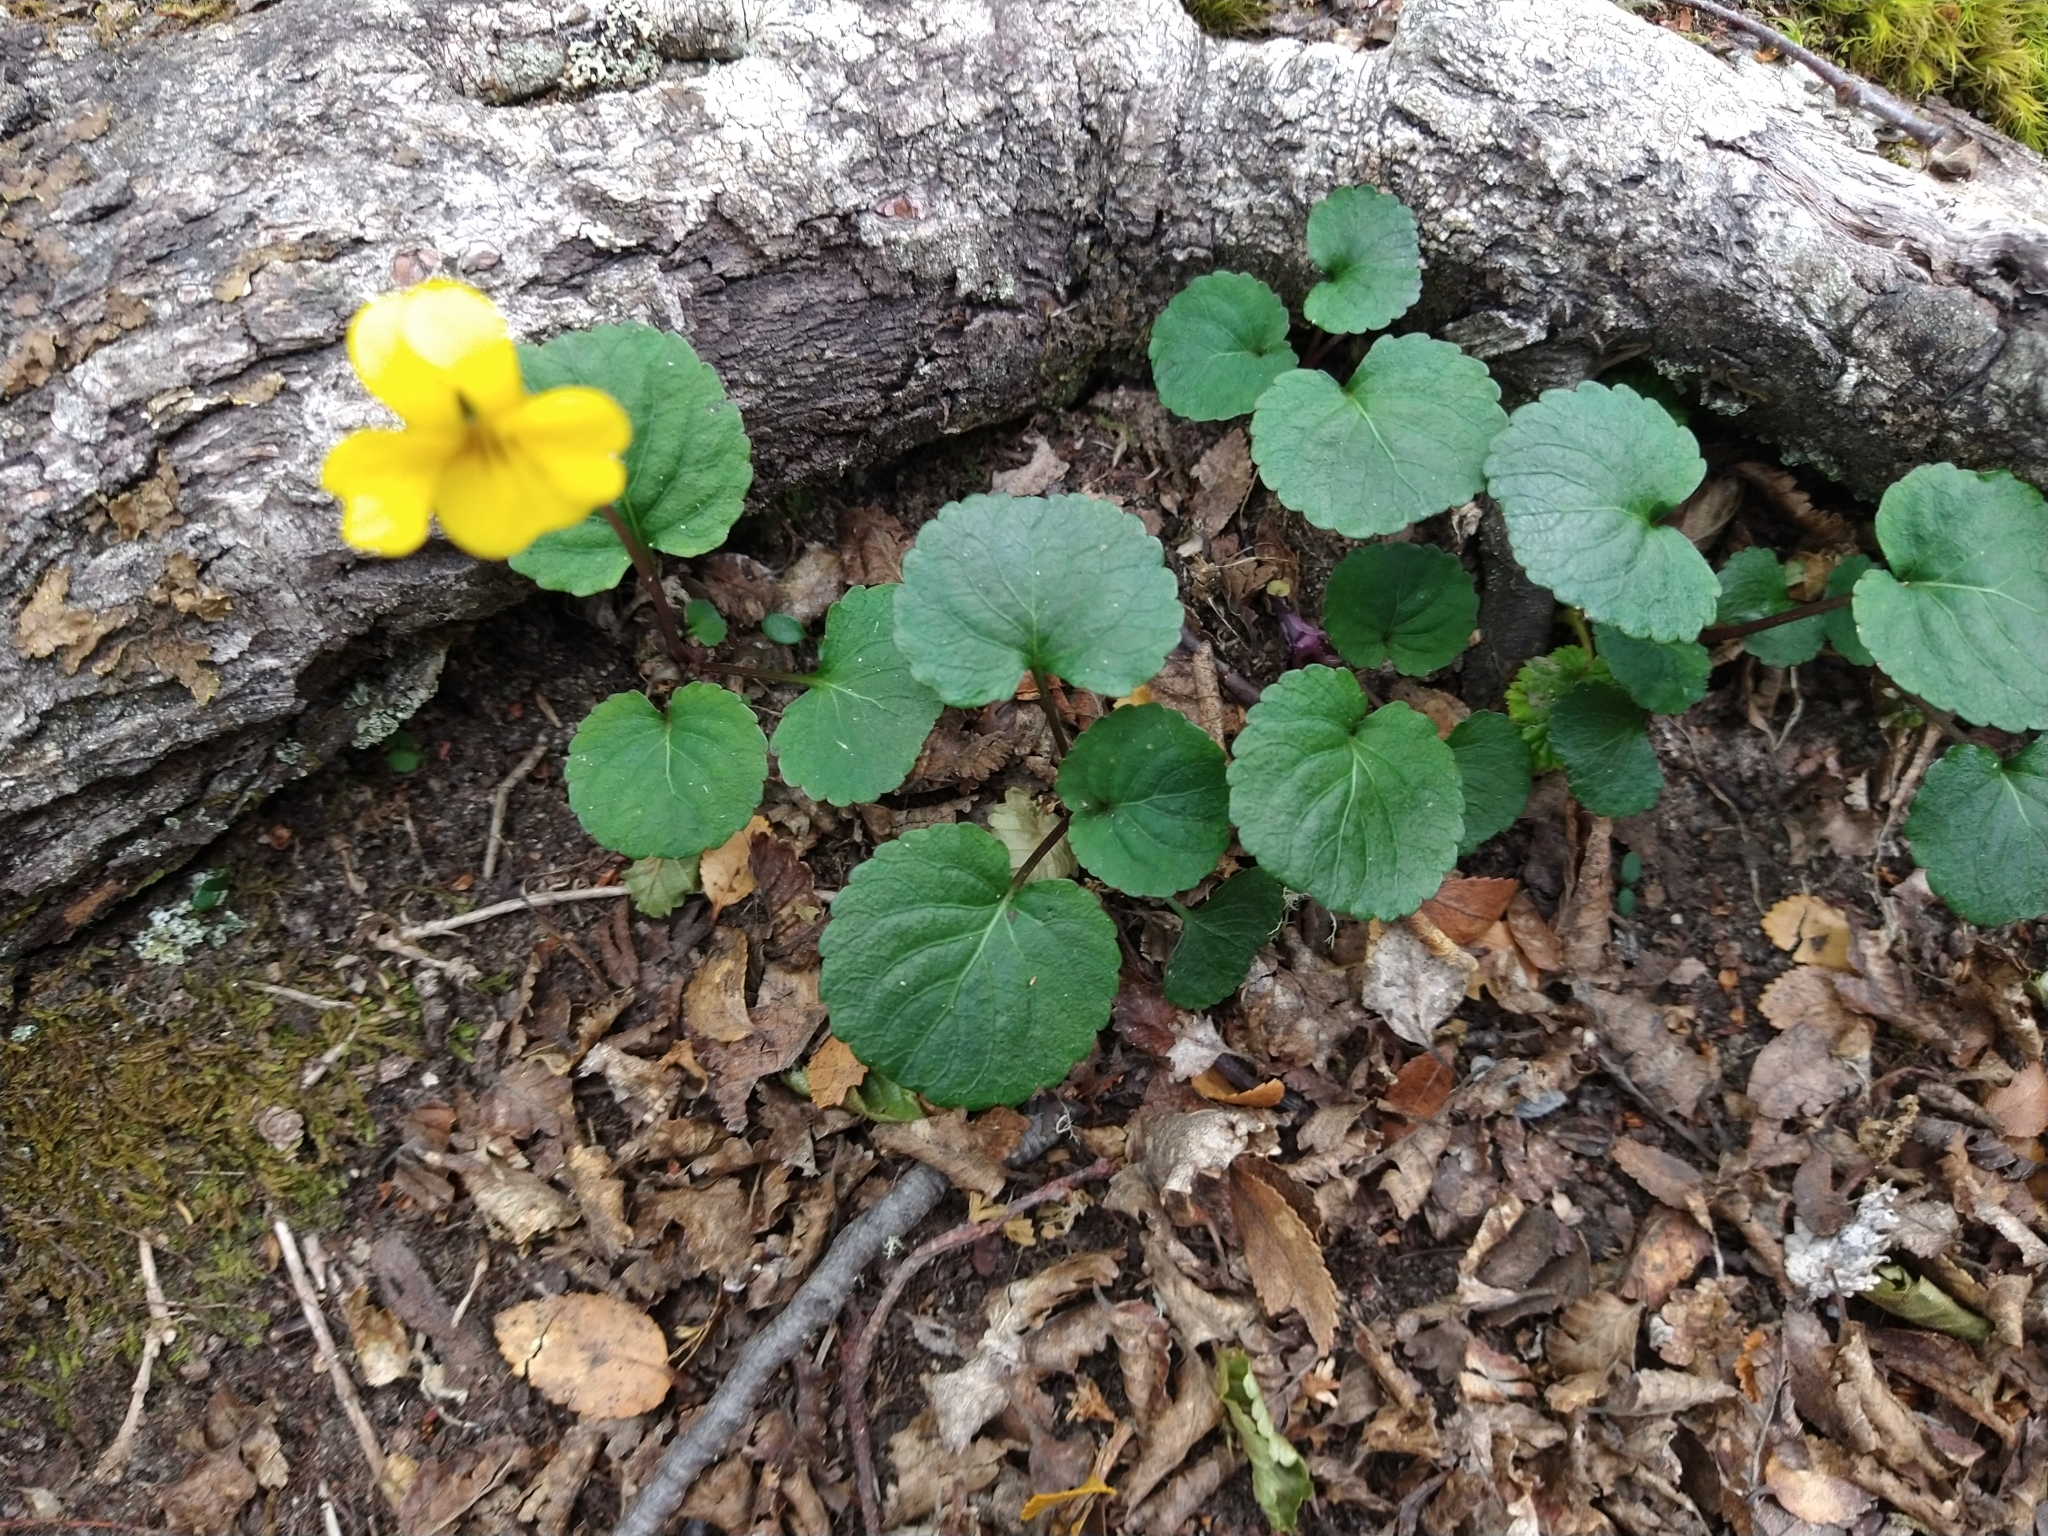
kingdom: Plantae
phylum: Tracheophyta
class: Magnoliopsida
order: Malpighiales
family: Violaceae
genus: Viola
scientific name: Viola magellanica
